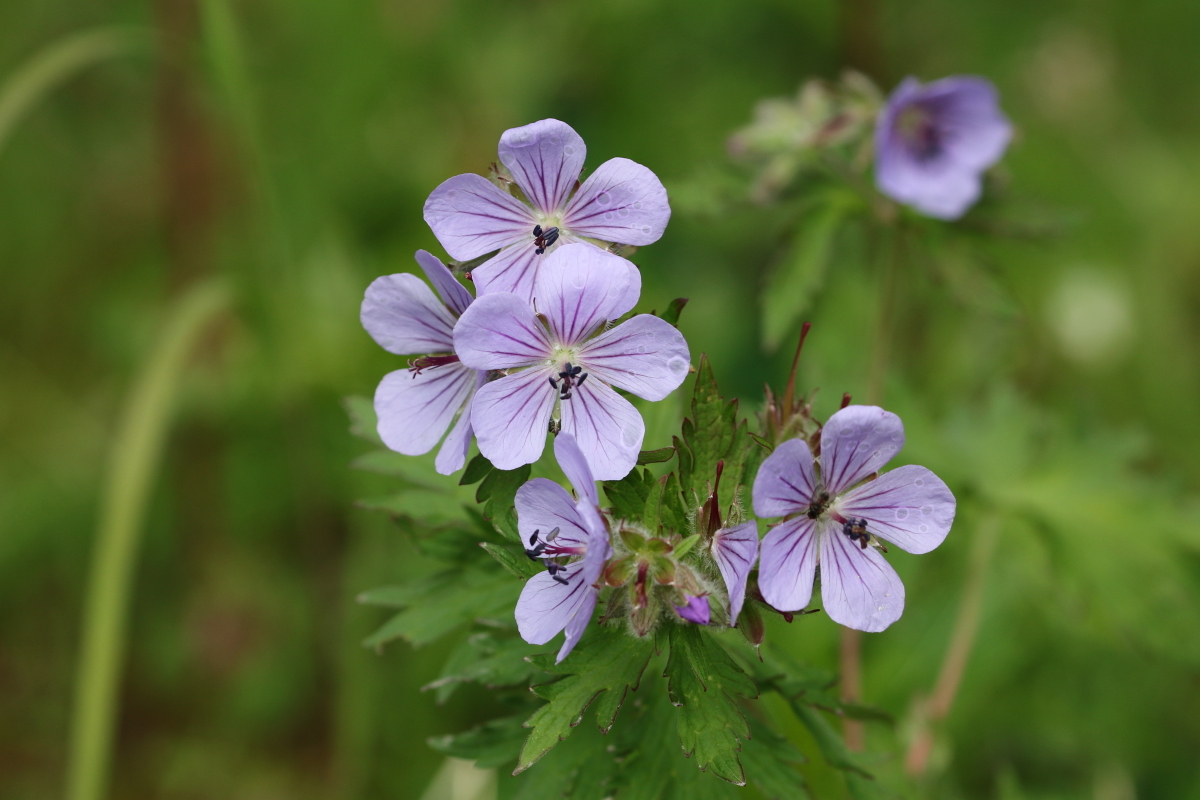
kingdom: Plantae
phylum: Tracheophyta
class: Magnoliopsida
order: Geraniales
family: Geraniaceae
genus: Geranium
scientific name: Geranium erianthum
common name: Northern crane's-bill
